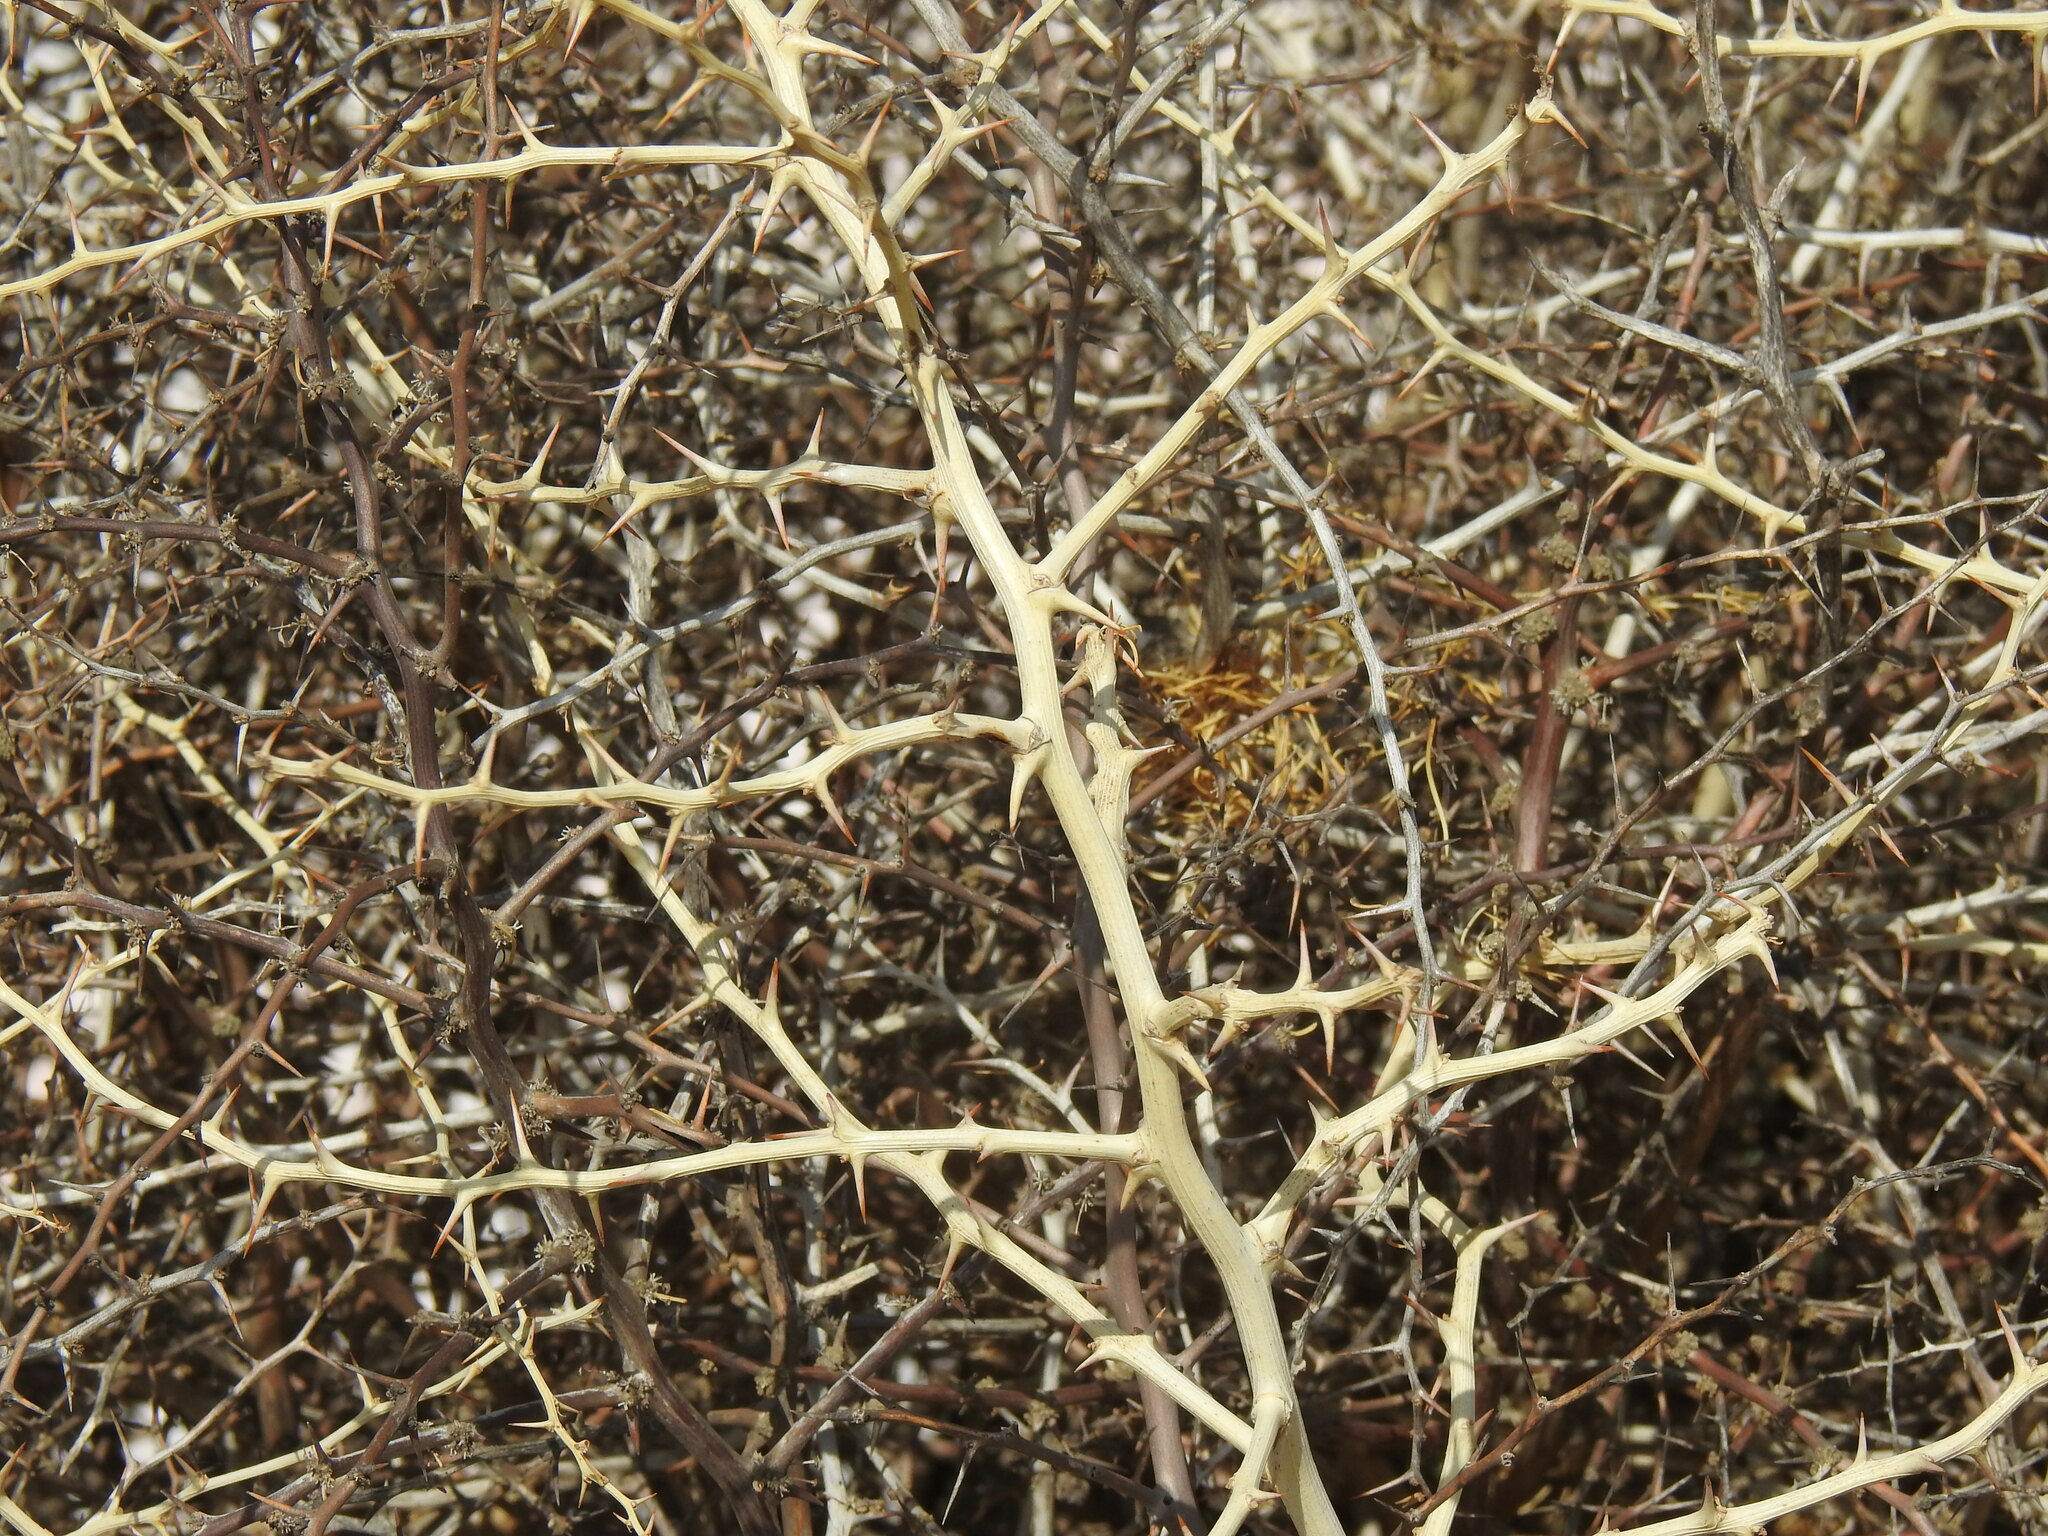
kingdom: Plantae
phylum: Tracheophyta
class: Liliopsida
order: Asparagales
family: Asparagaceae
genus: Asparagus
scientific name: Asparagus albus
